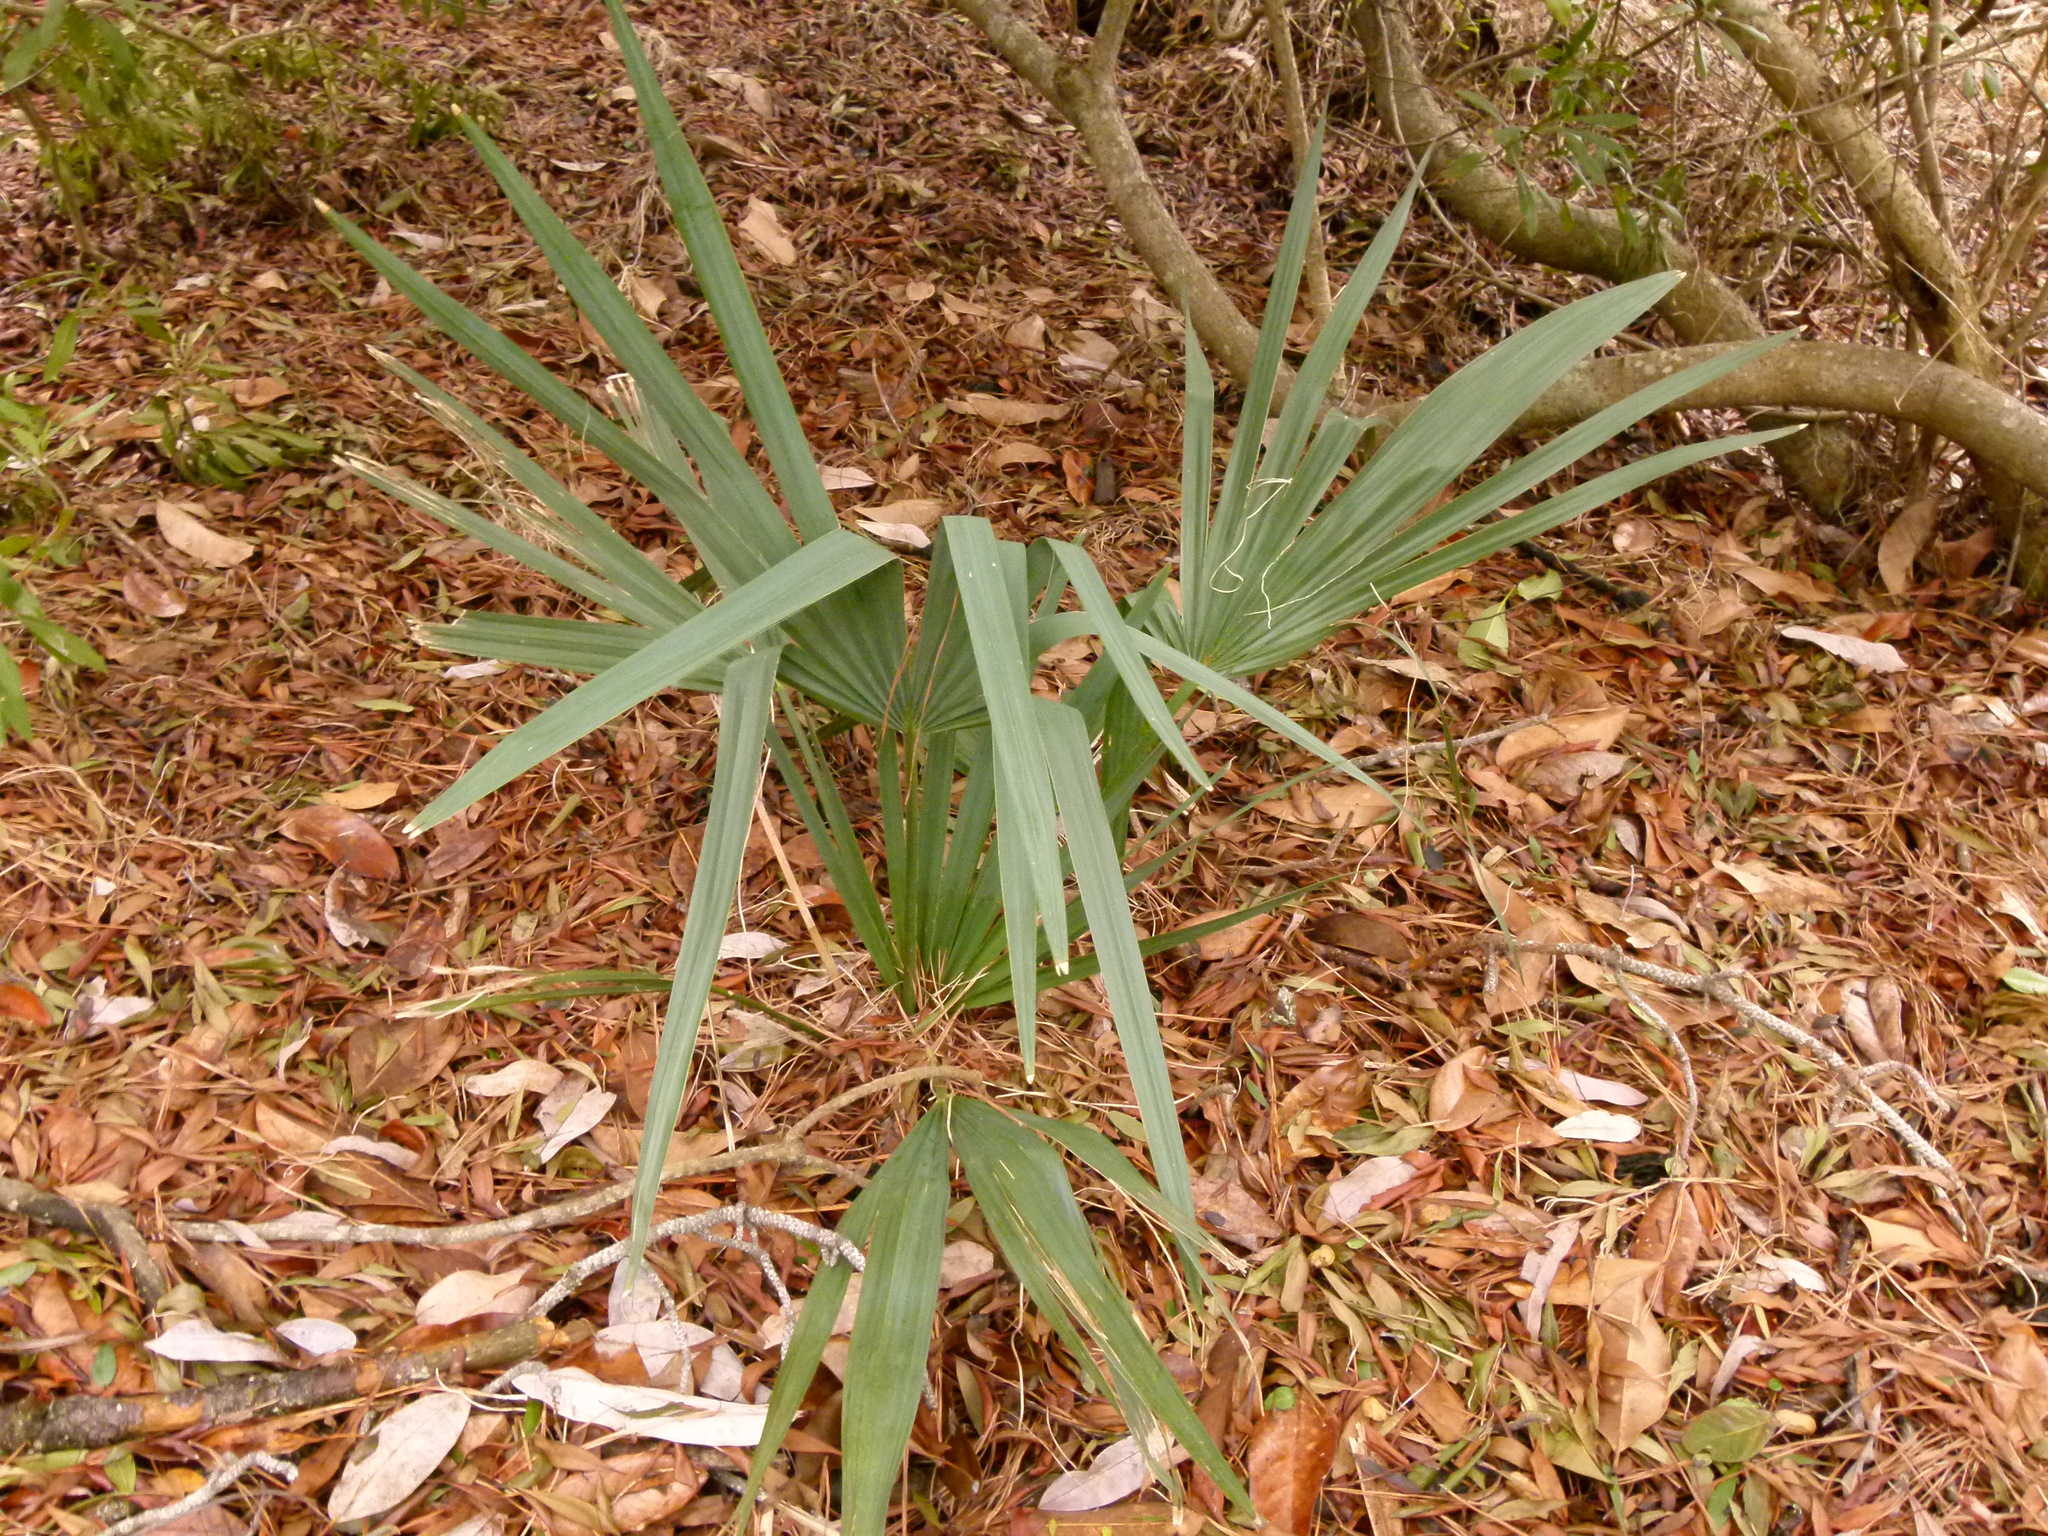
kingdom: Plantae
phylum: Tracheophyta
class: Liliopsida
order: Arecales
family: Arecaceae
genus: Sabal
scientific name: Sabal minor
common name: Dwarf palmetto
